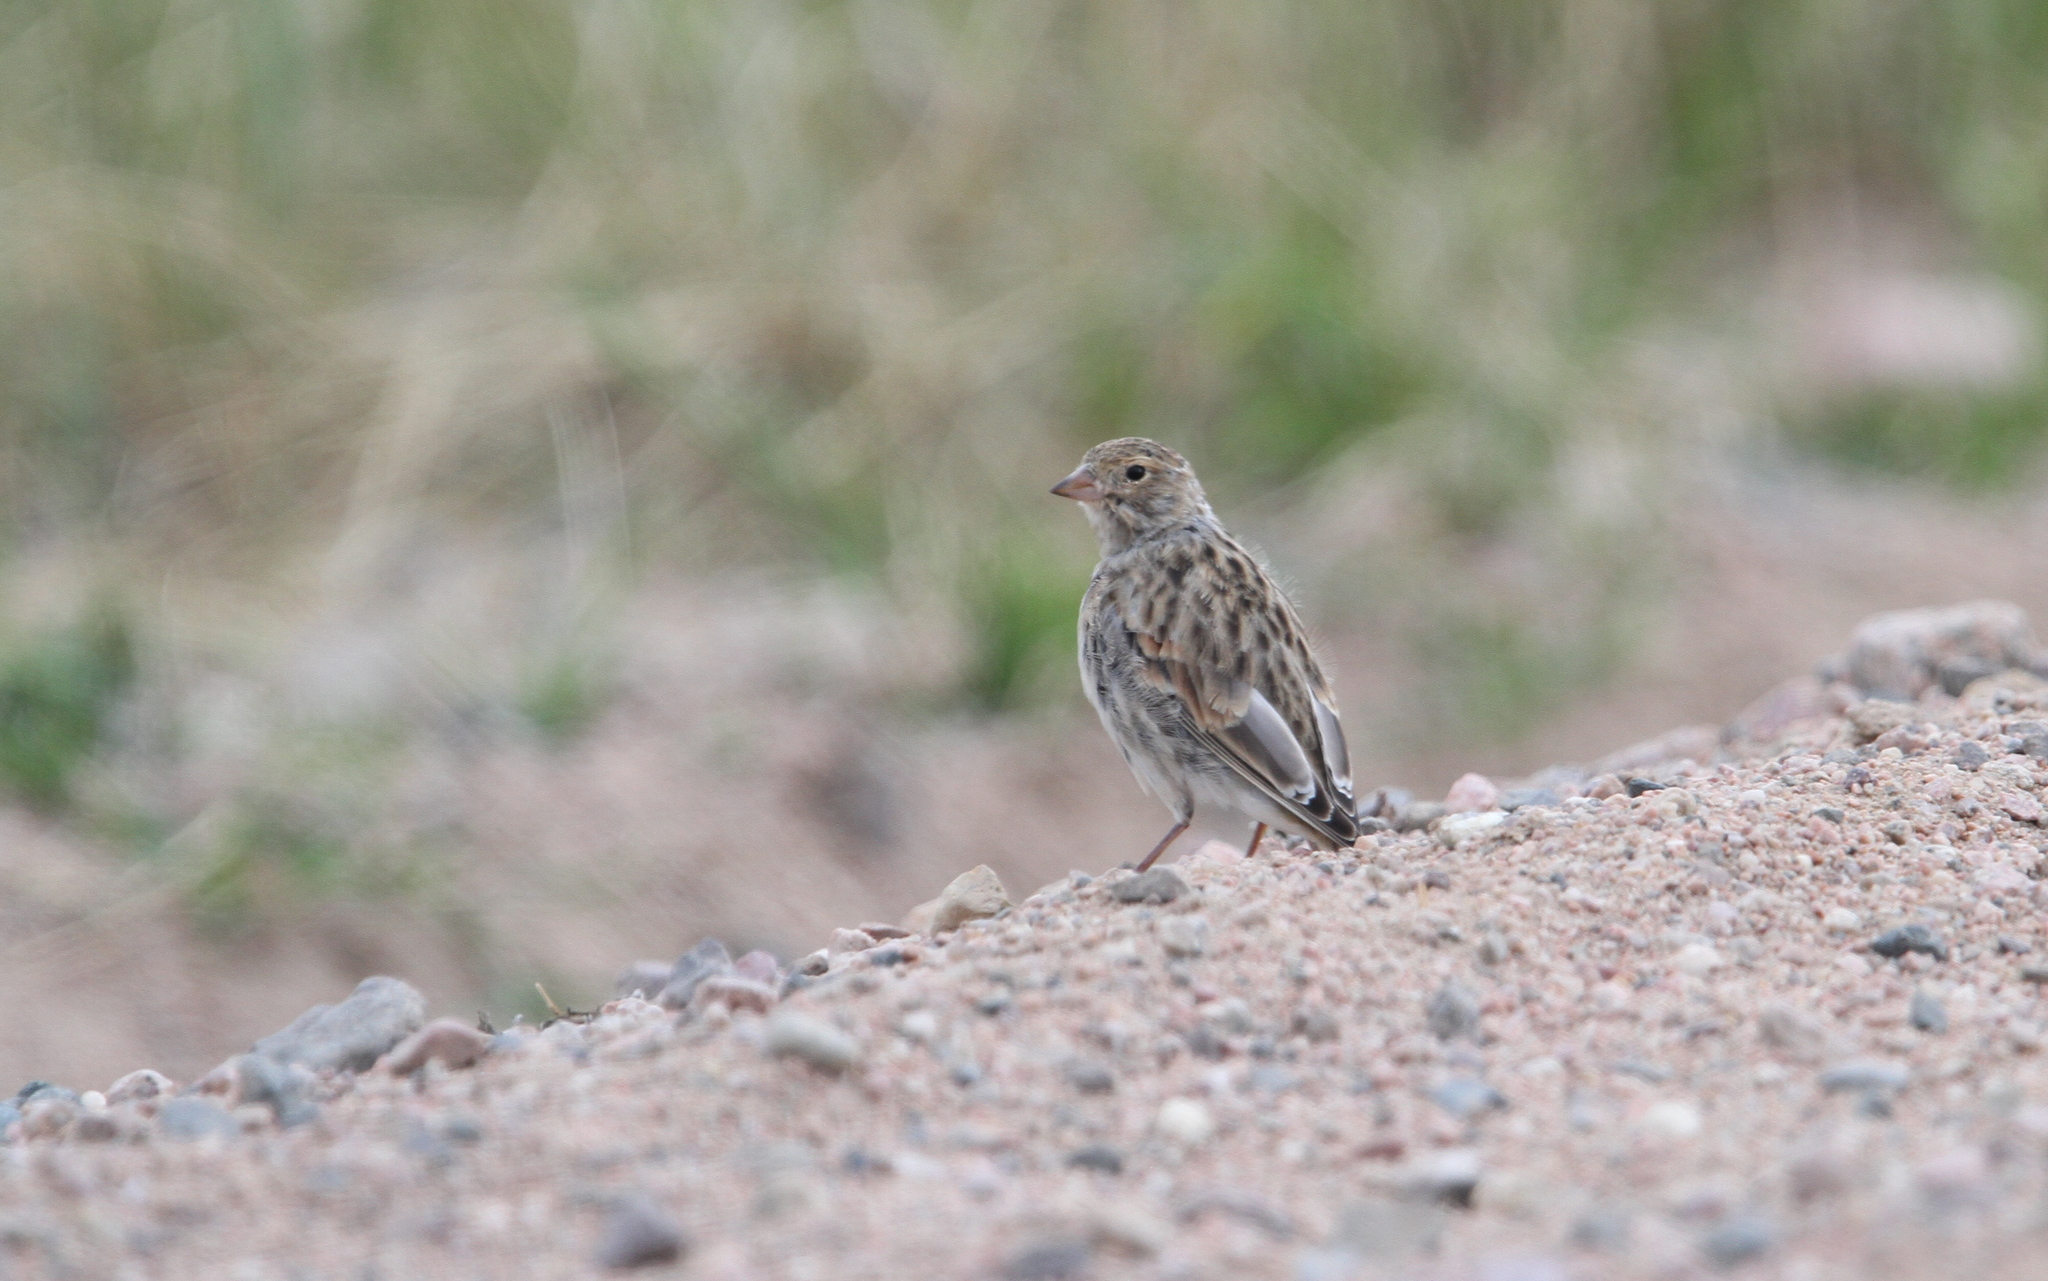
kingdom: Animalia
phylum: Chordata
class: Aves
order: Passeriformes
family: Calcariidae
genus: Rhynchophanes
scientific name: Rhynchophanes mccownii
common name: Mccown's longspur
